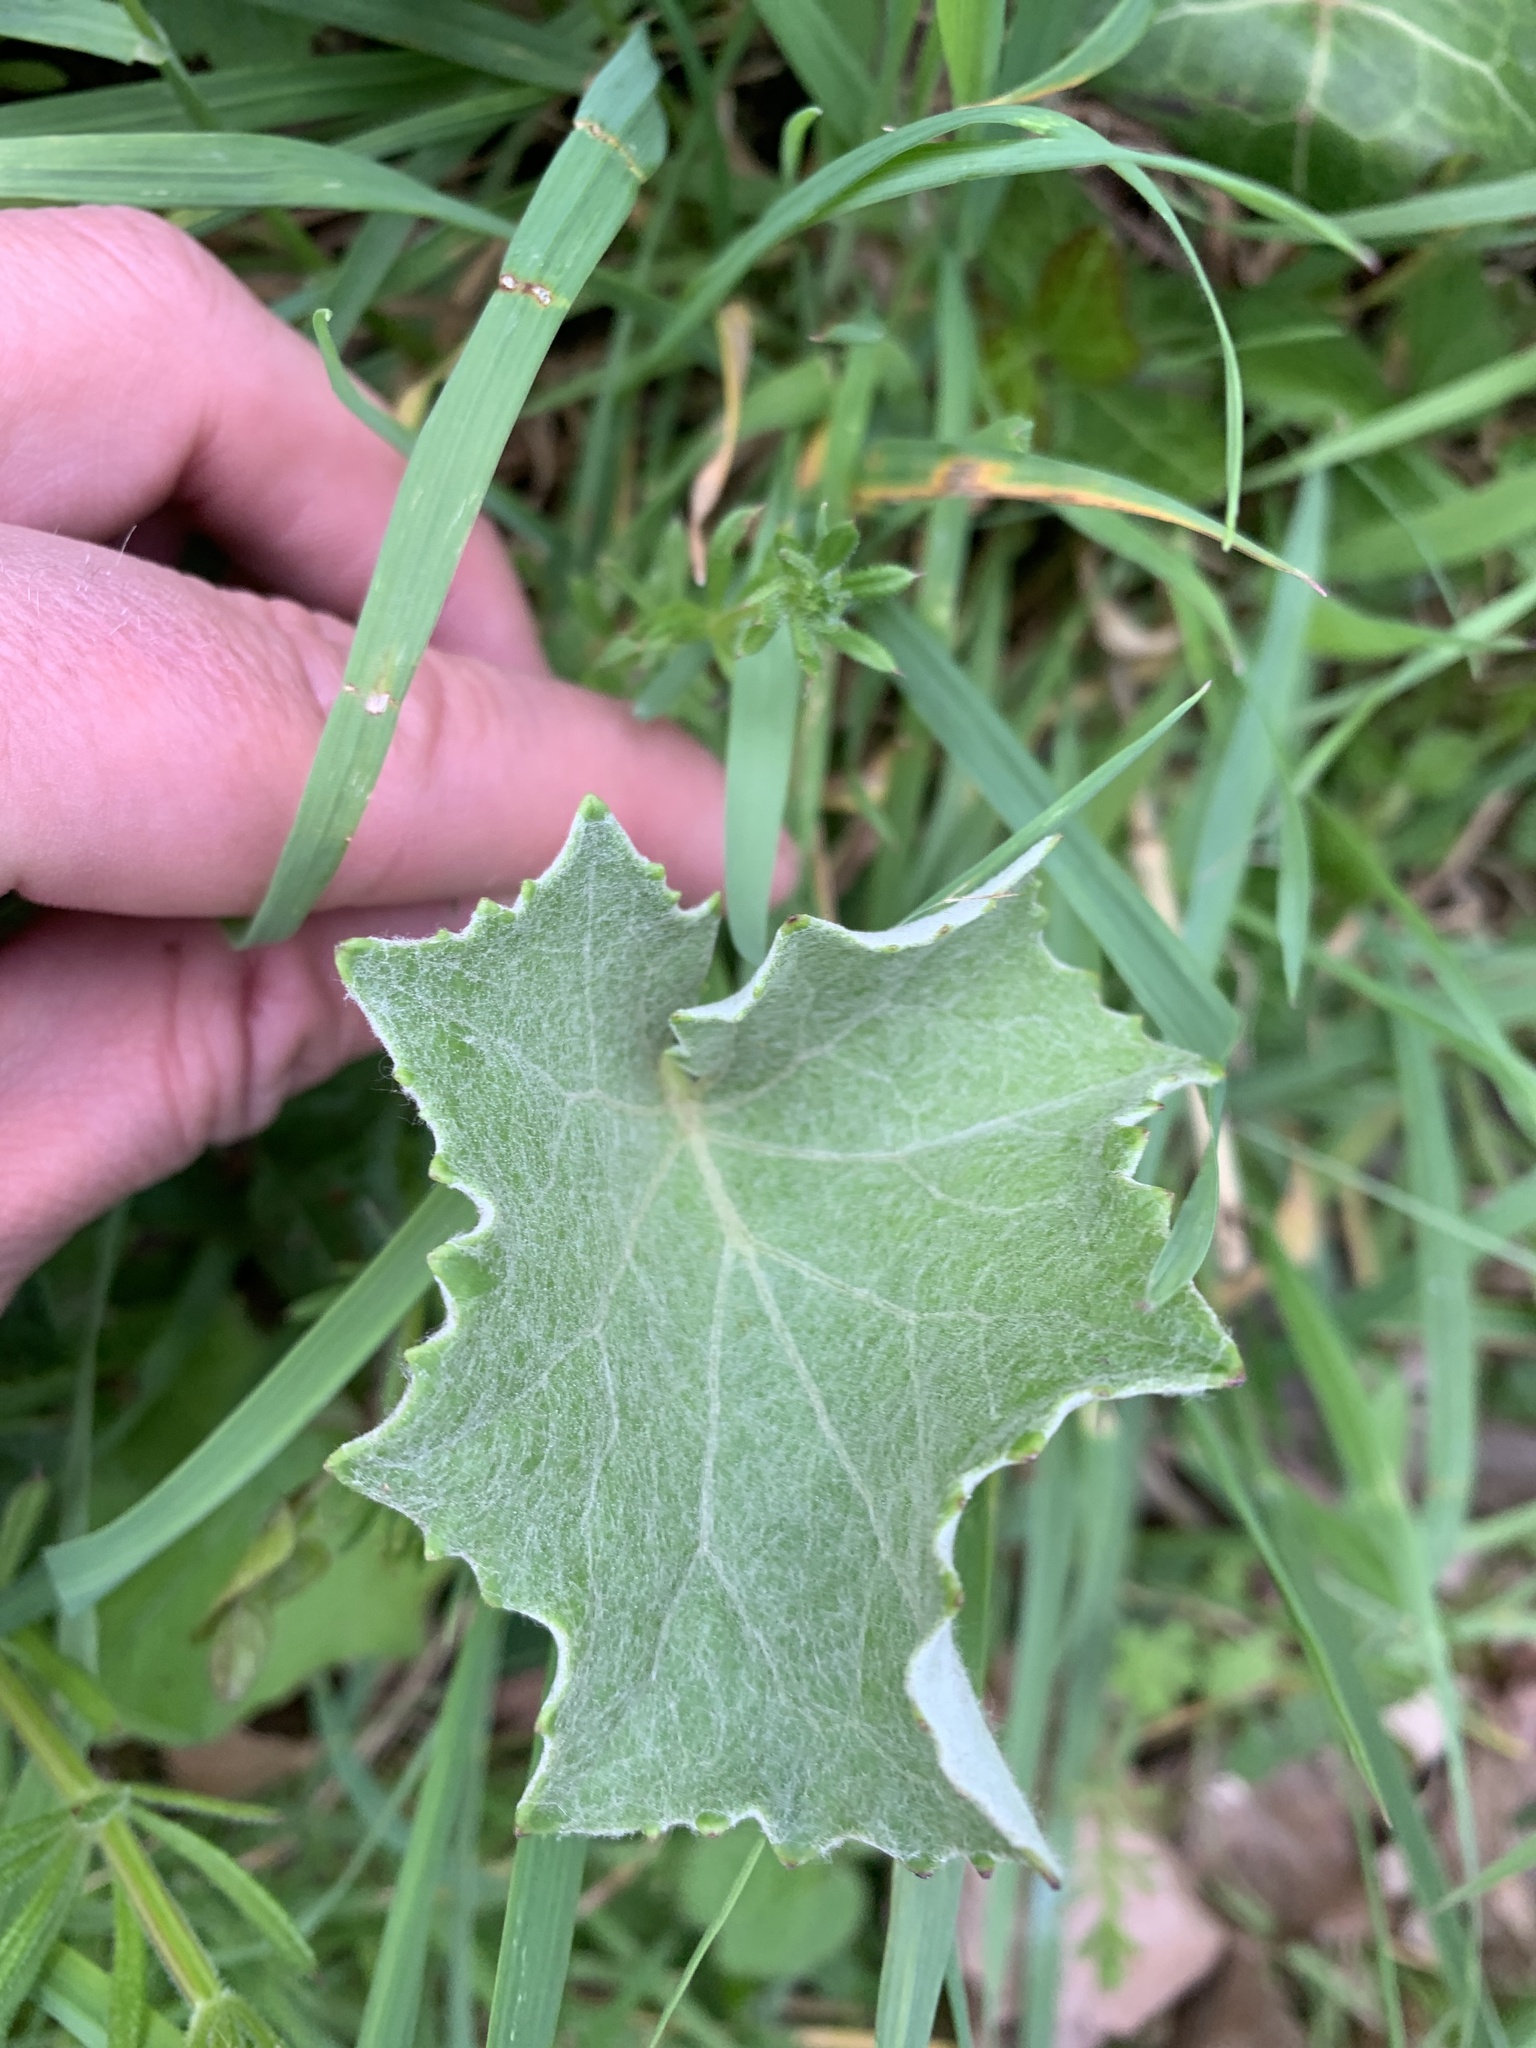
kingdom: Plantae
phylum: Tracheophyta
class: Magnoliopsida
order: Asterales
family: Asteraceae
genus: Tussilago
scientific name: Tussilago farfara
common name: Coltsfoot
